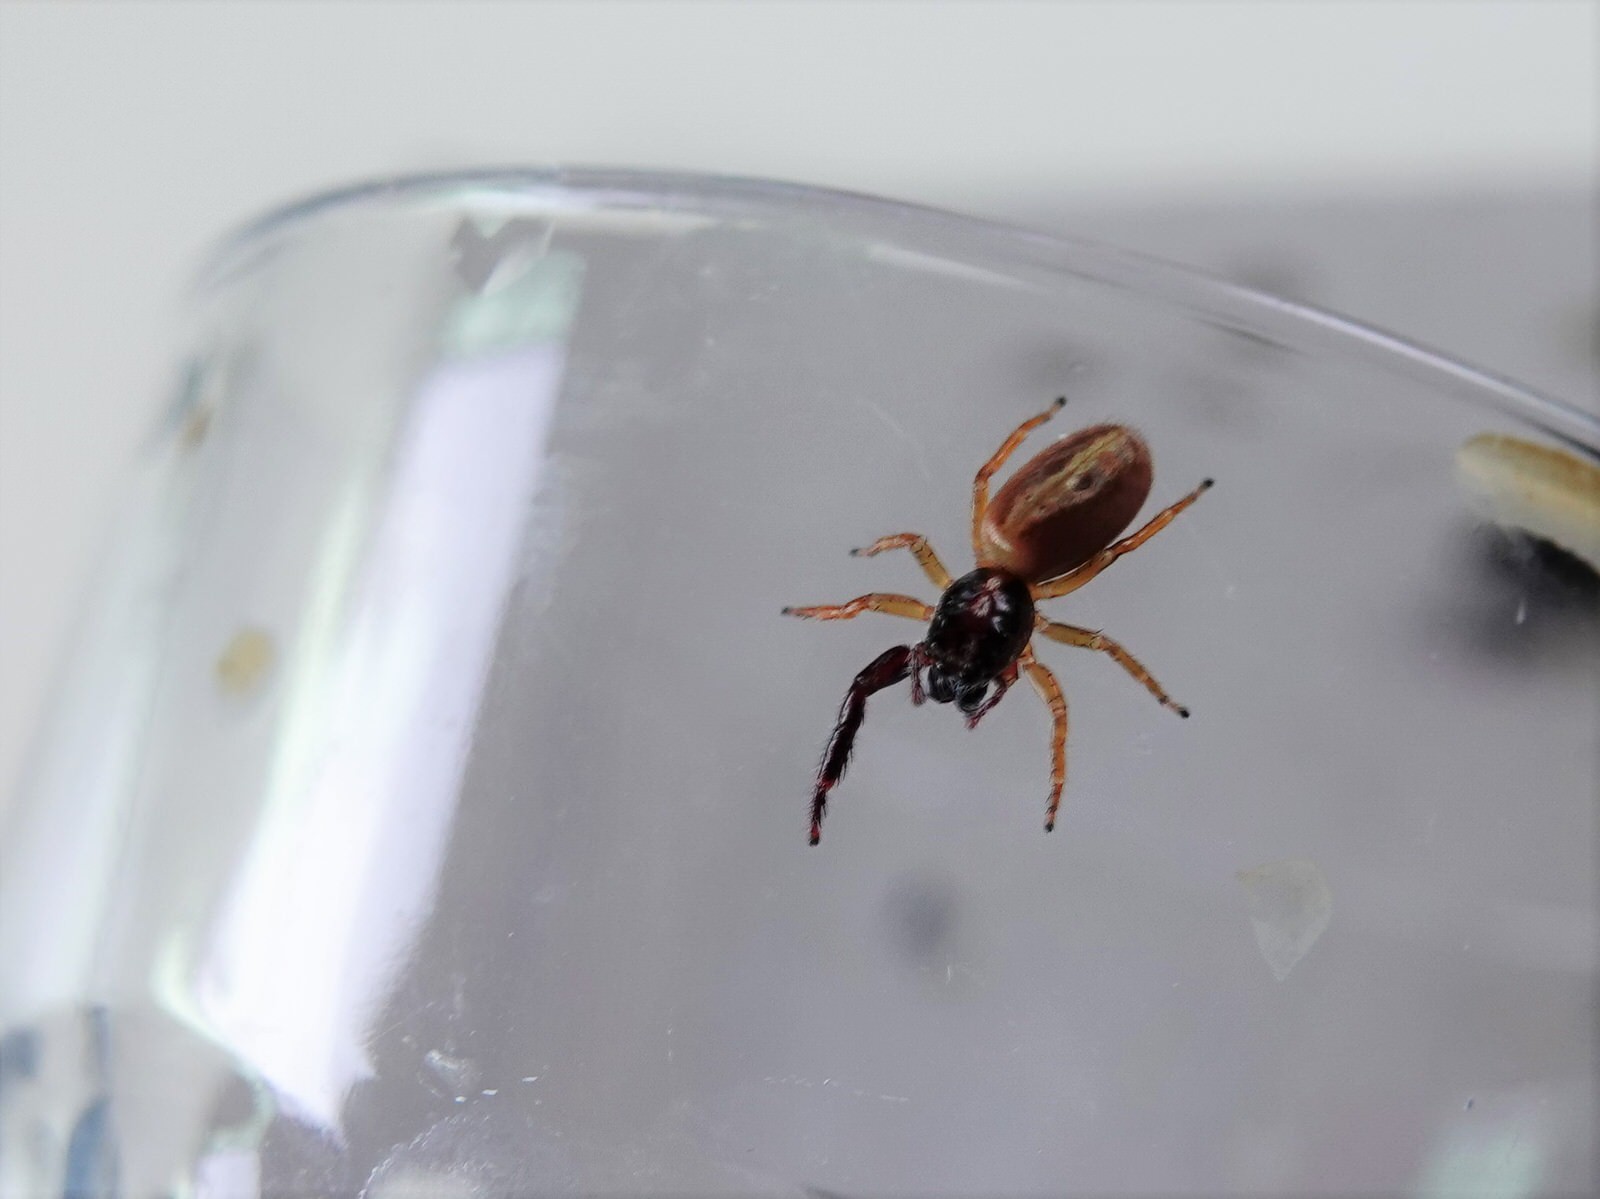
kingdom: Animalia
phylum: Arthropoda
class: Arachnida
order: Araneae
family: Salticidae
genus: Trite
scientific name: Trite planiceps
